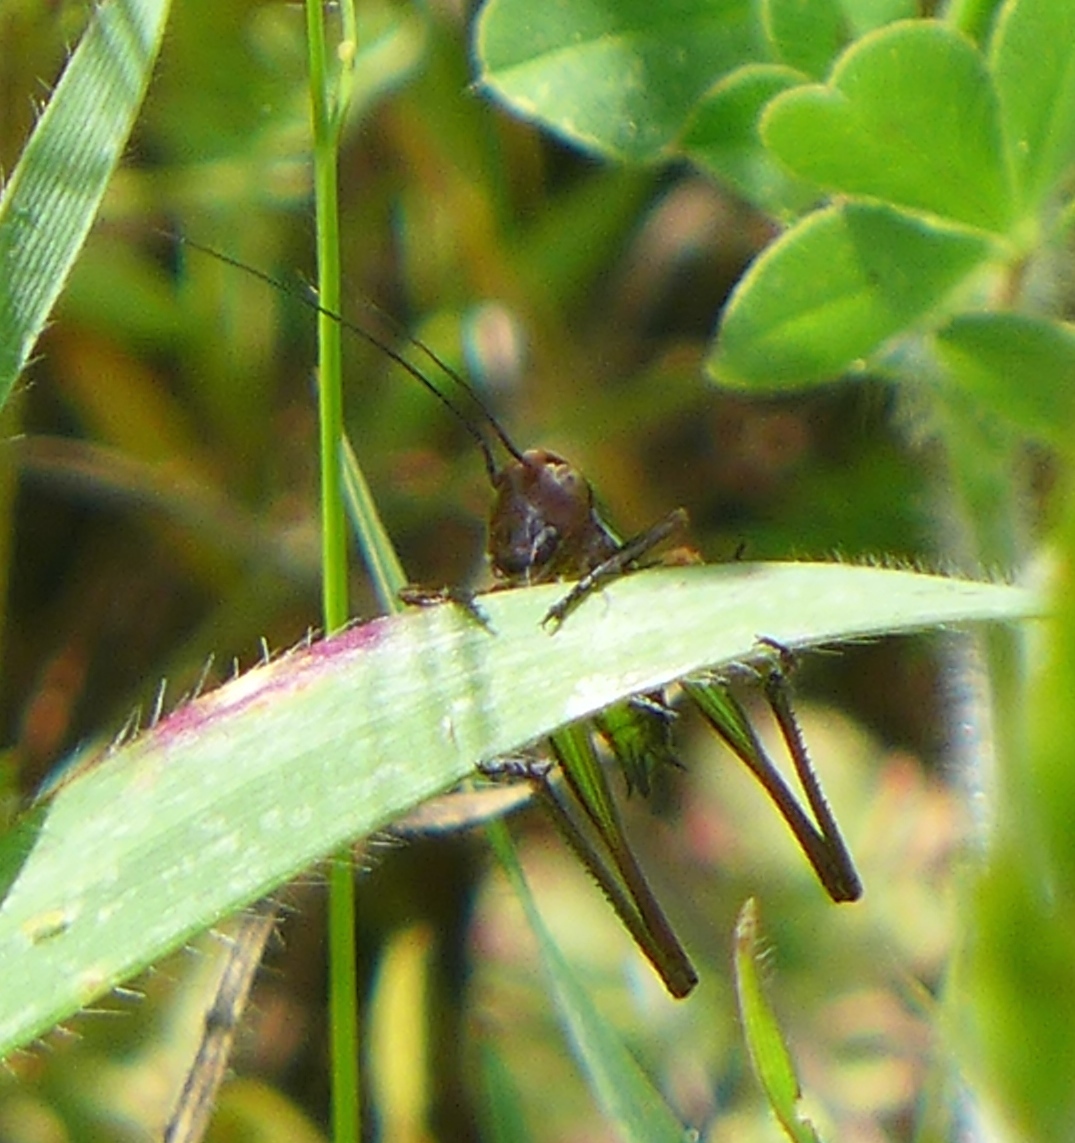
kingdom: Animalia
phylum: Arthropoda
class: Insecta
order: Orthoptera
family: Tettigoniidae
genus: Decticita
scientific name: Decticita brevicauda
